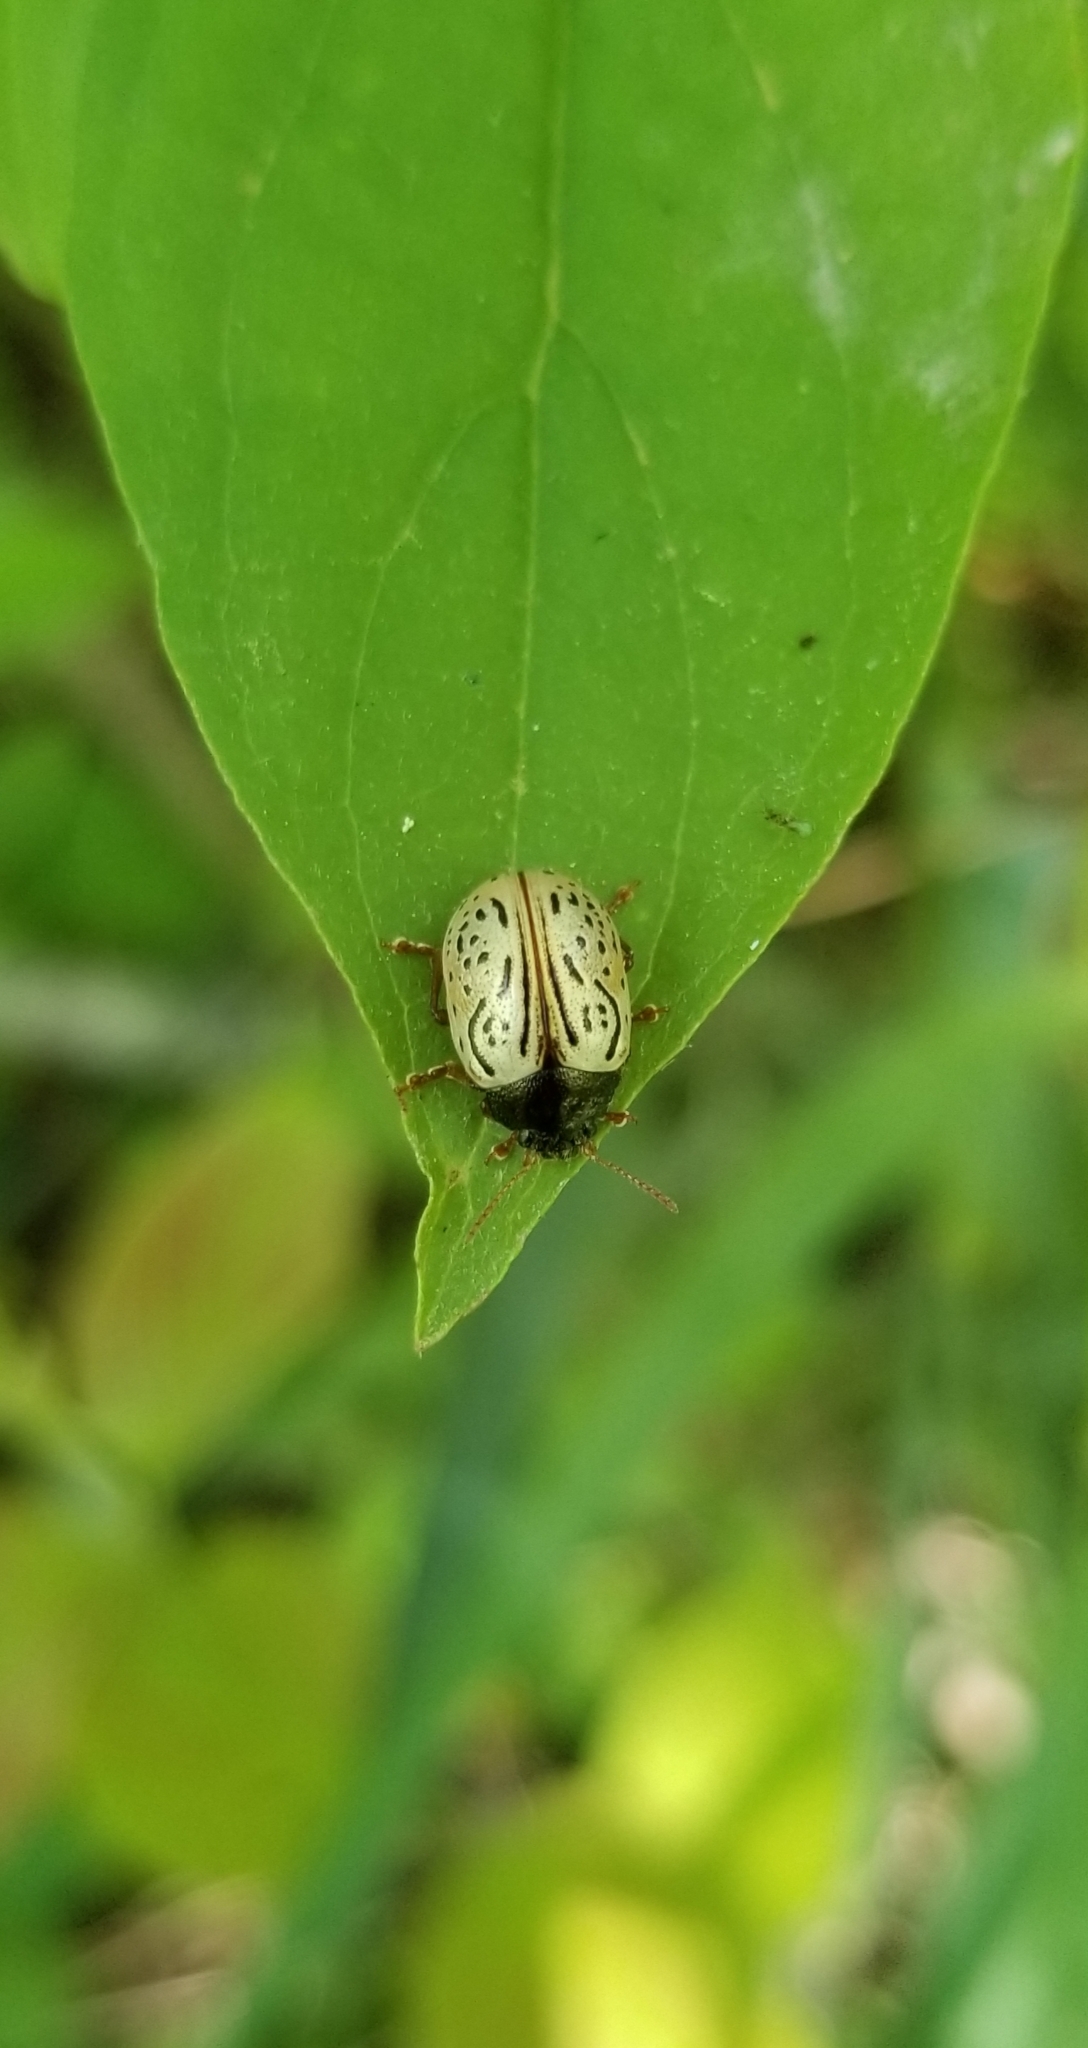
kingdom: Animalia
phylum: Arthropoda
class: Insecta
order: Coleoptera
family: Chrysomelidae
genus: Calligrapha
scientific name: Calligrapha philadelphica
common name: Dogwood leaf beetle
